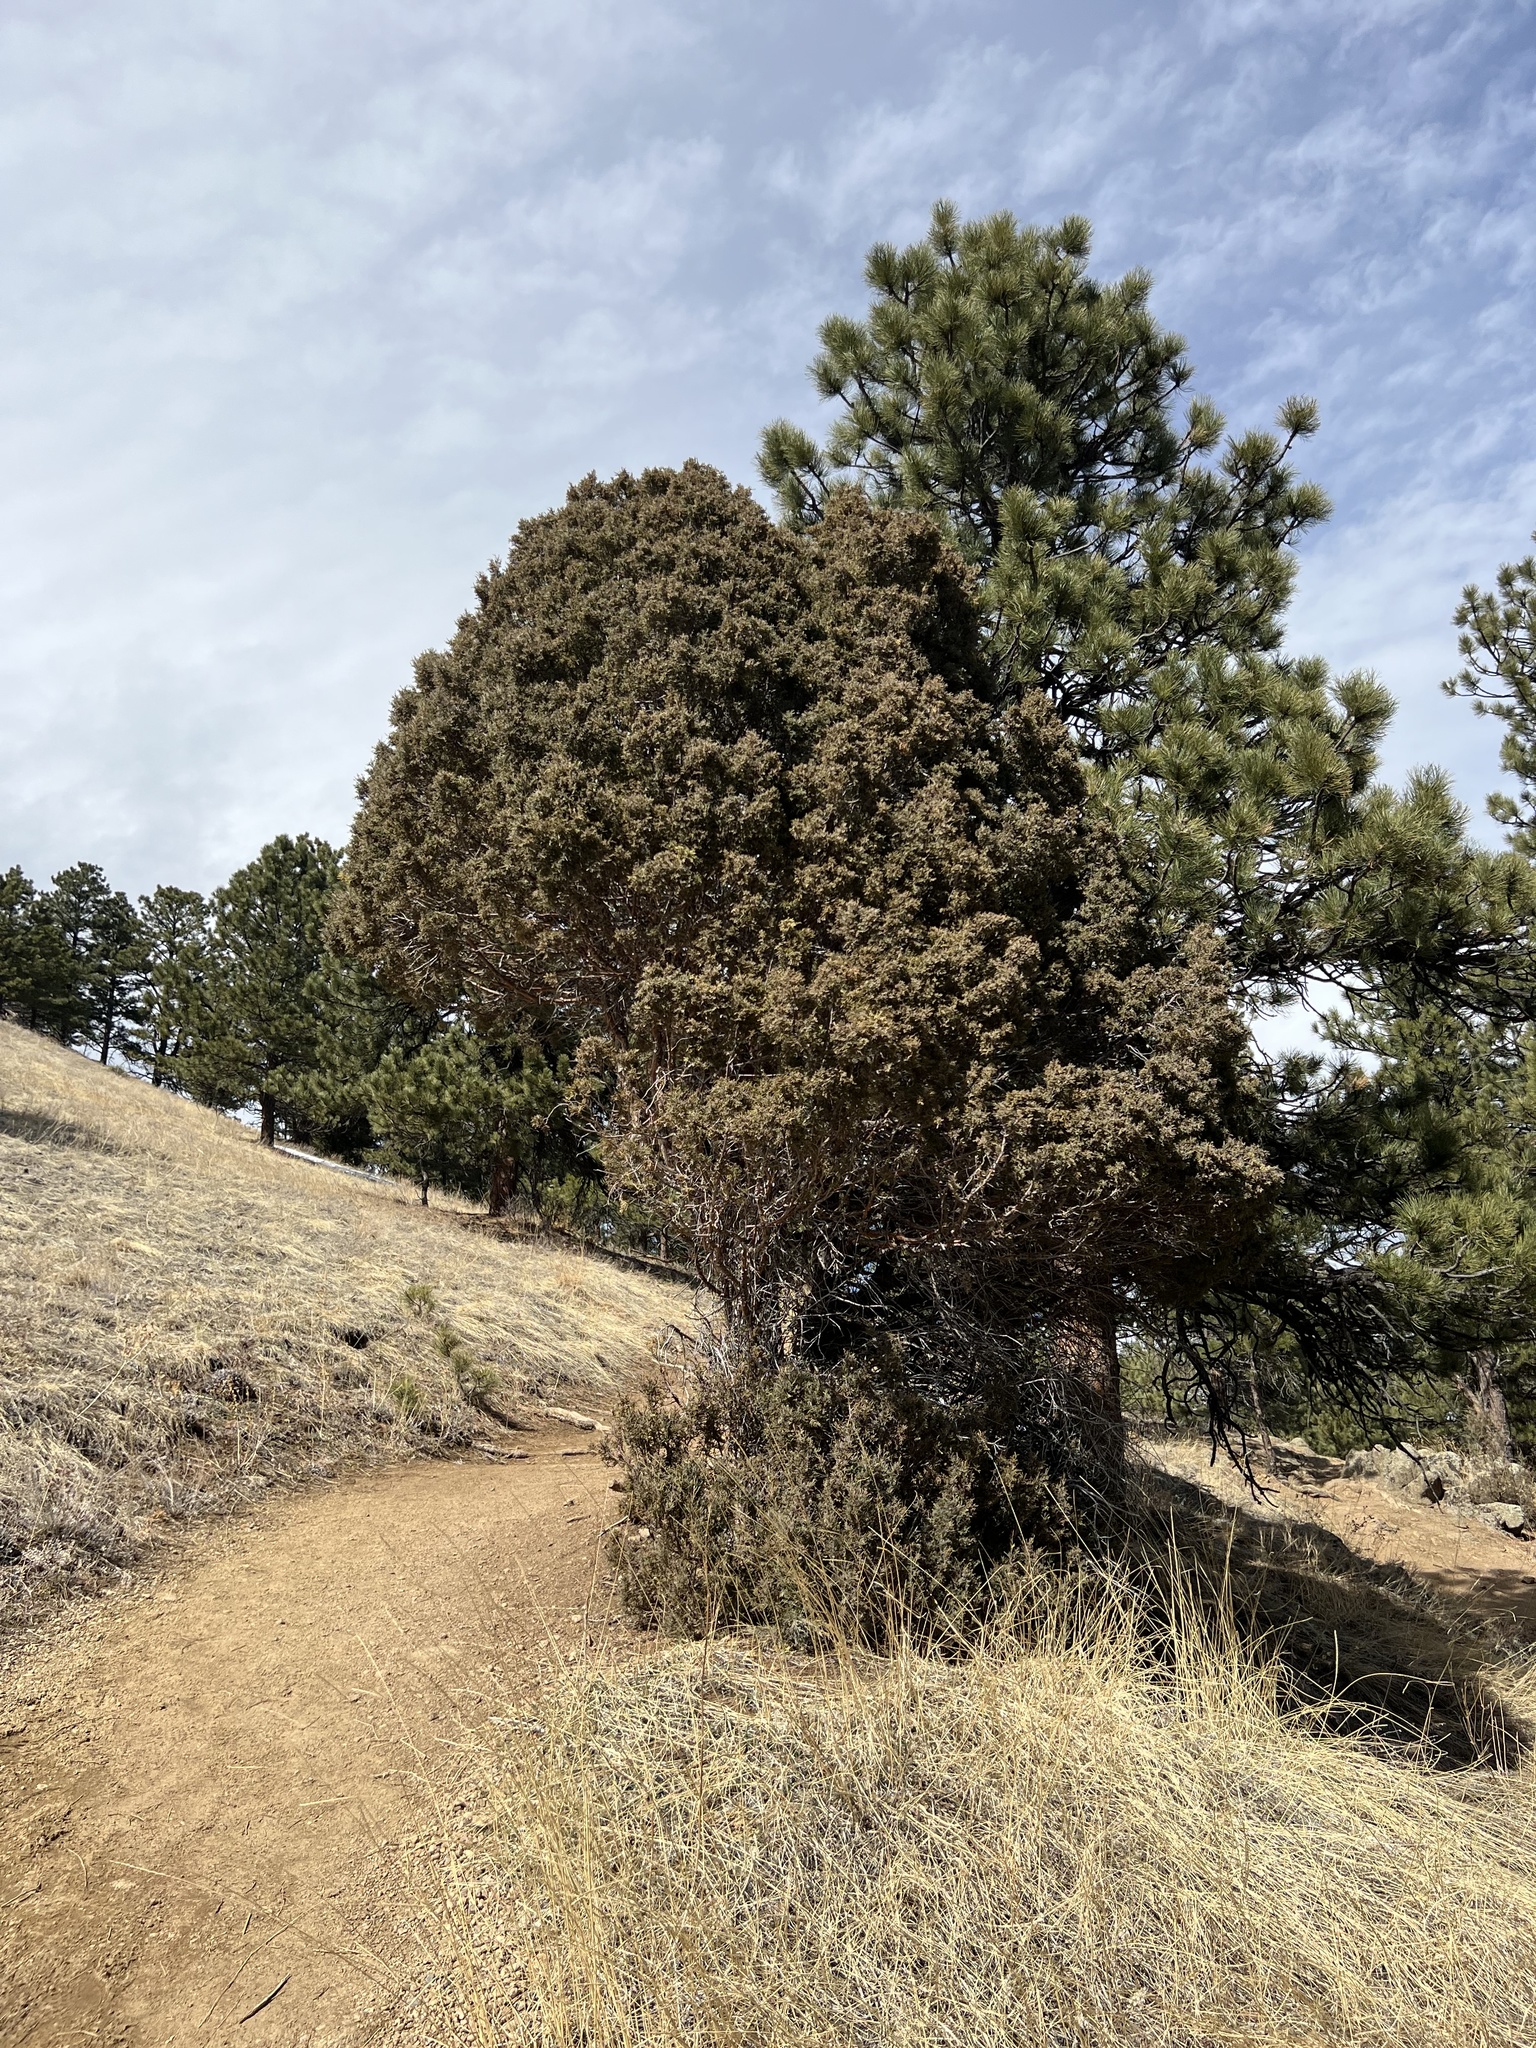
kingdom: Plantae
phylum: Tracheophyta
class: Pinopsida
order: Pinales
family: Cupressaceae
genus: Juniperus
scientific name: Juniperus scopulorum
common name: Rocky mountain juniper
